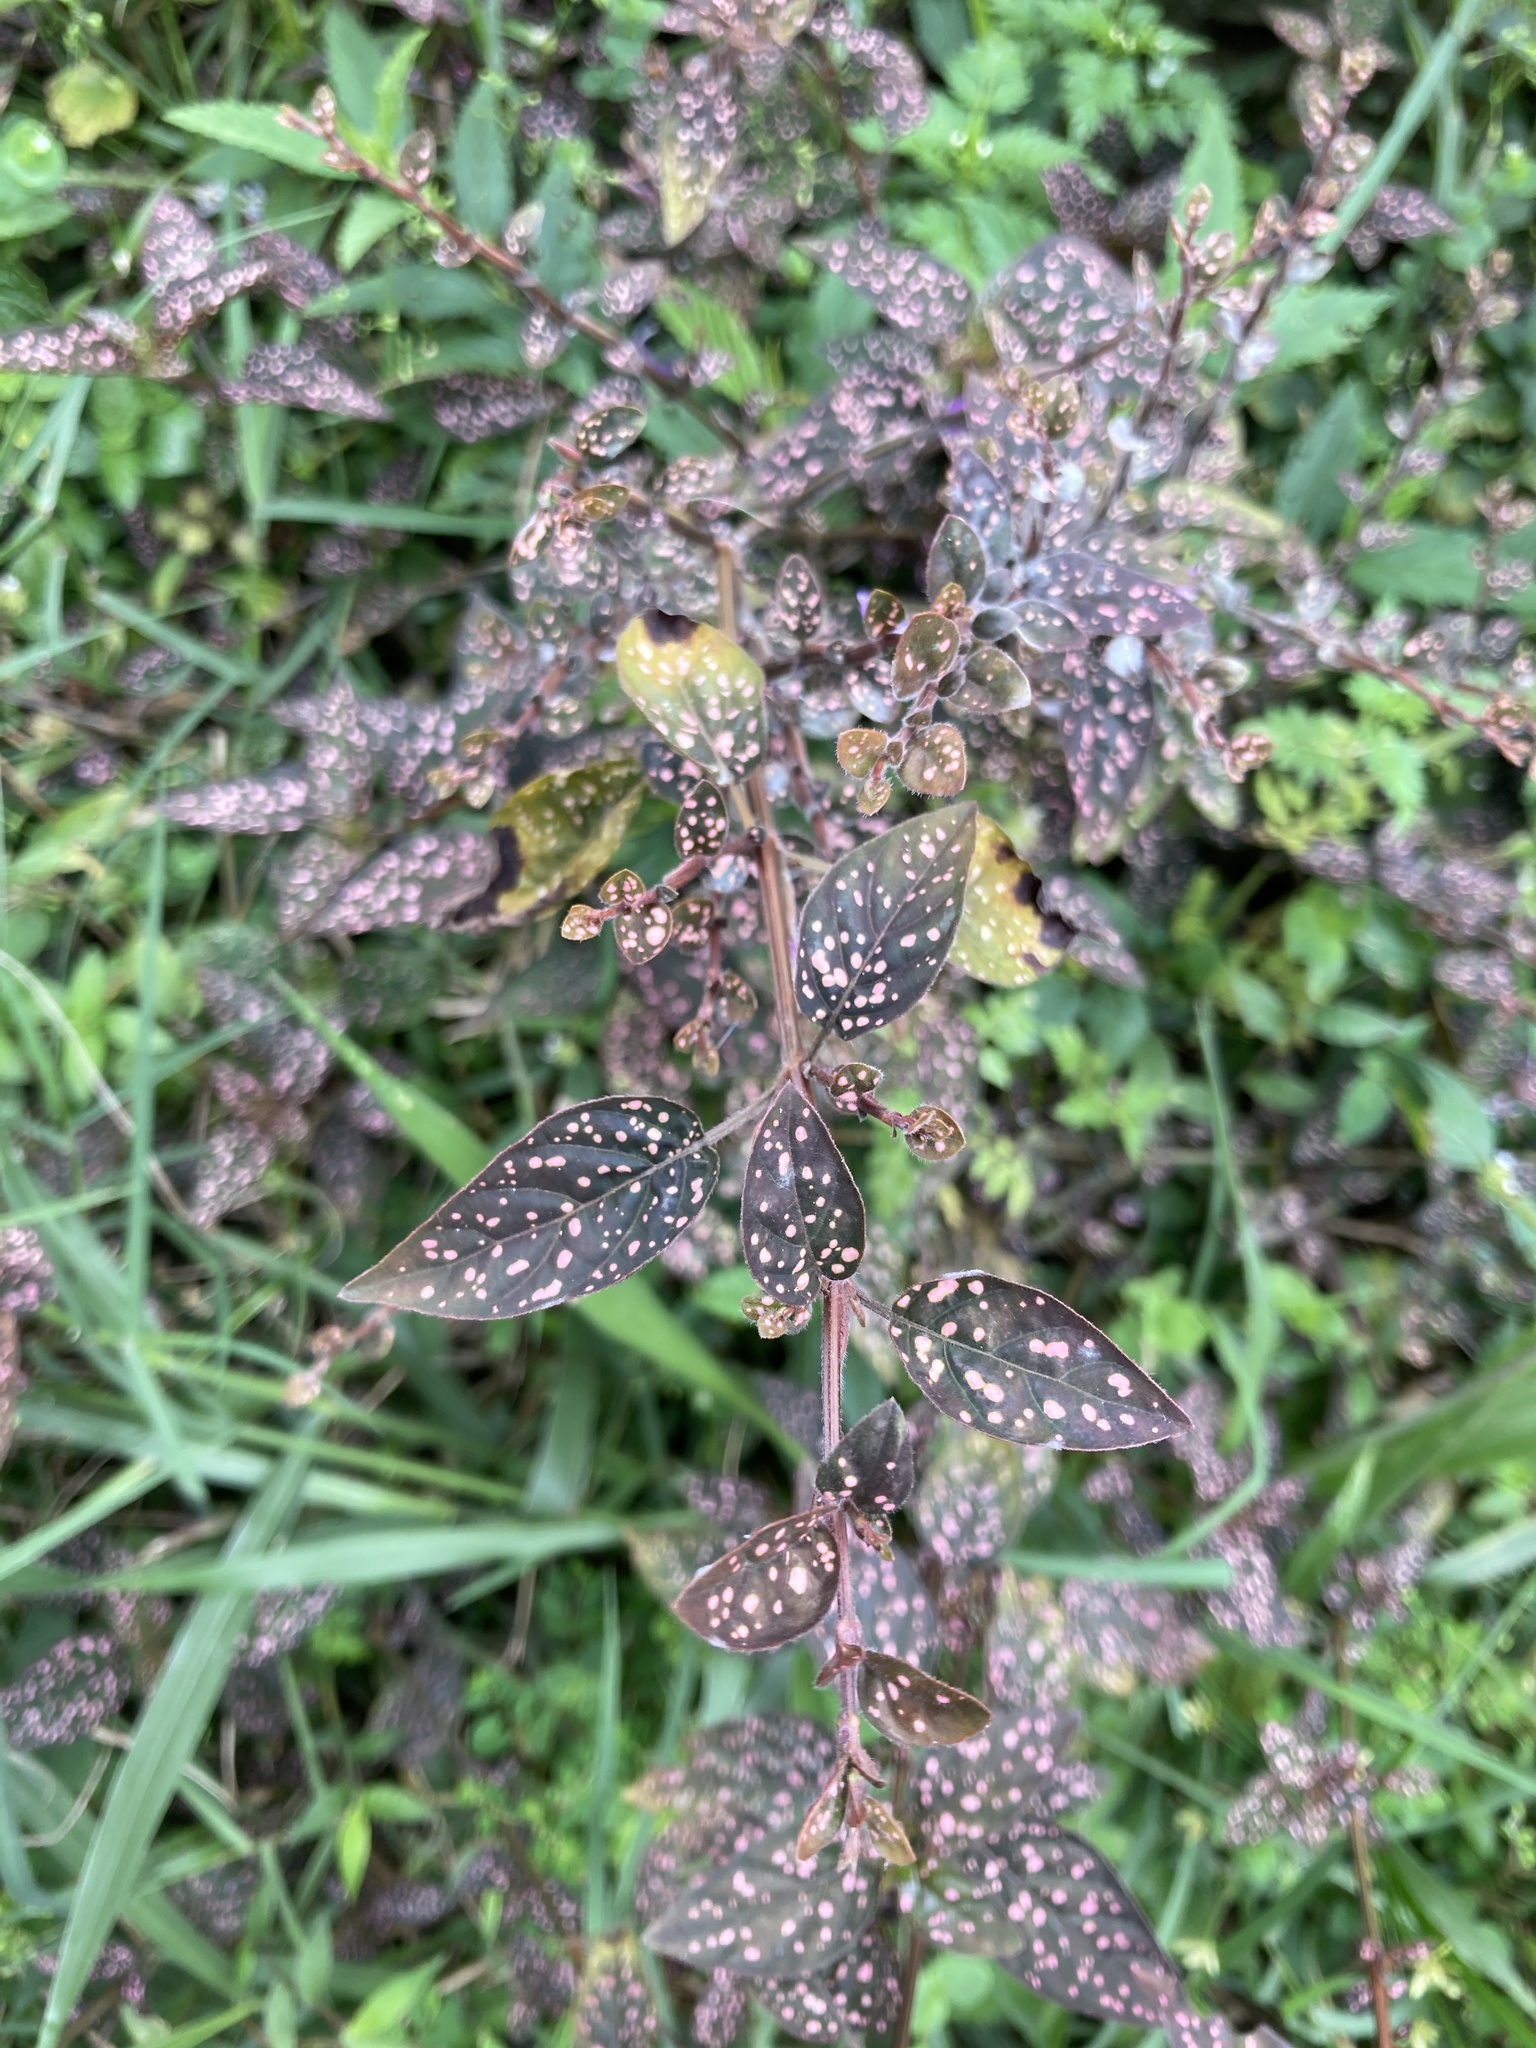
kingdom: Plantae
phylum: Tracheophyta
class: Magnoliopsida
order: Lamiales
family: Acanthaceae
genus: Hypoestes
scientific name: Hypoestes phyllostachya
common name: Polkadot-plant
